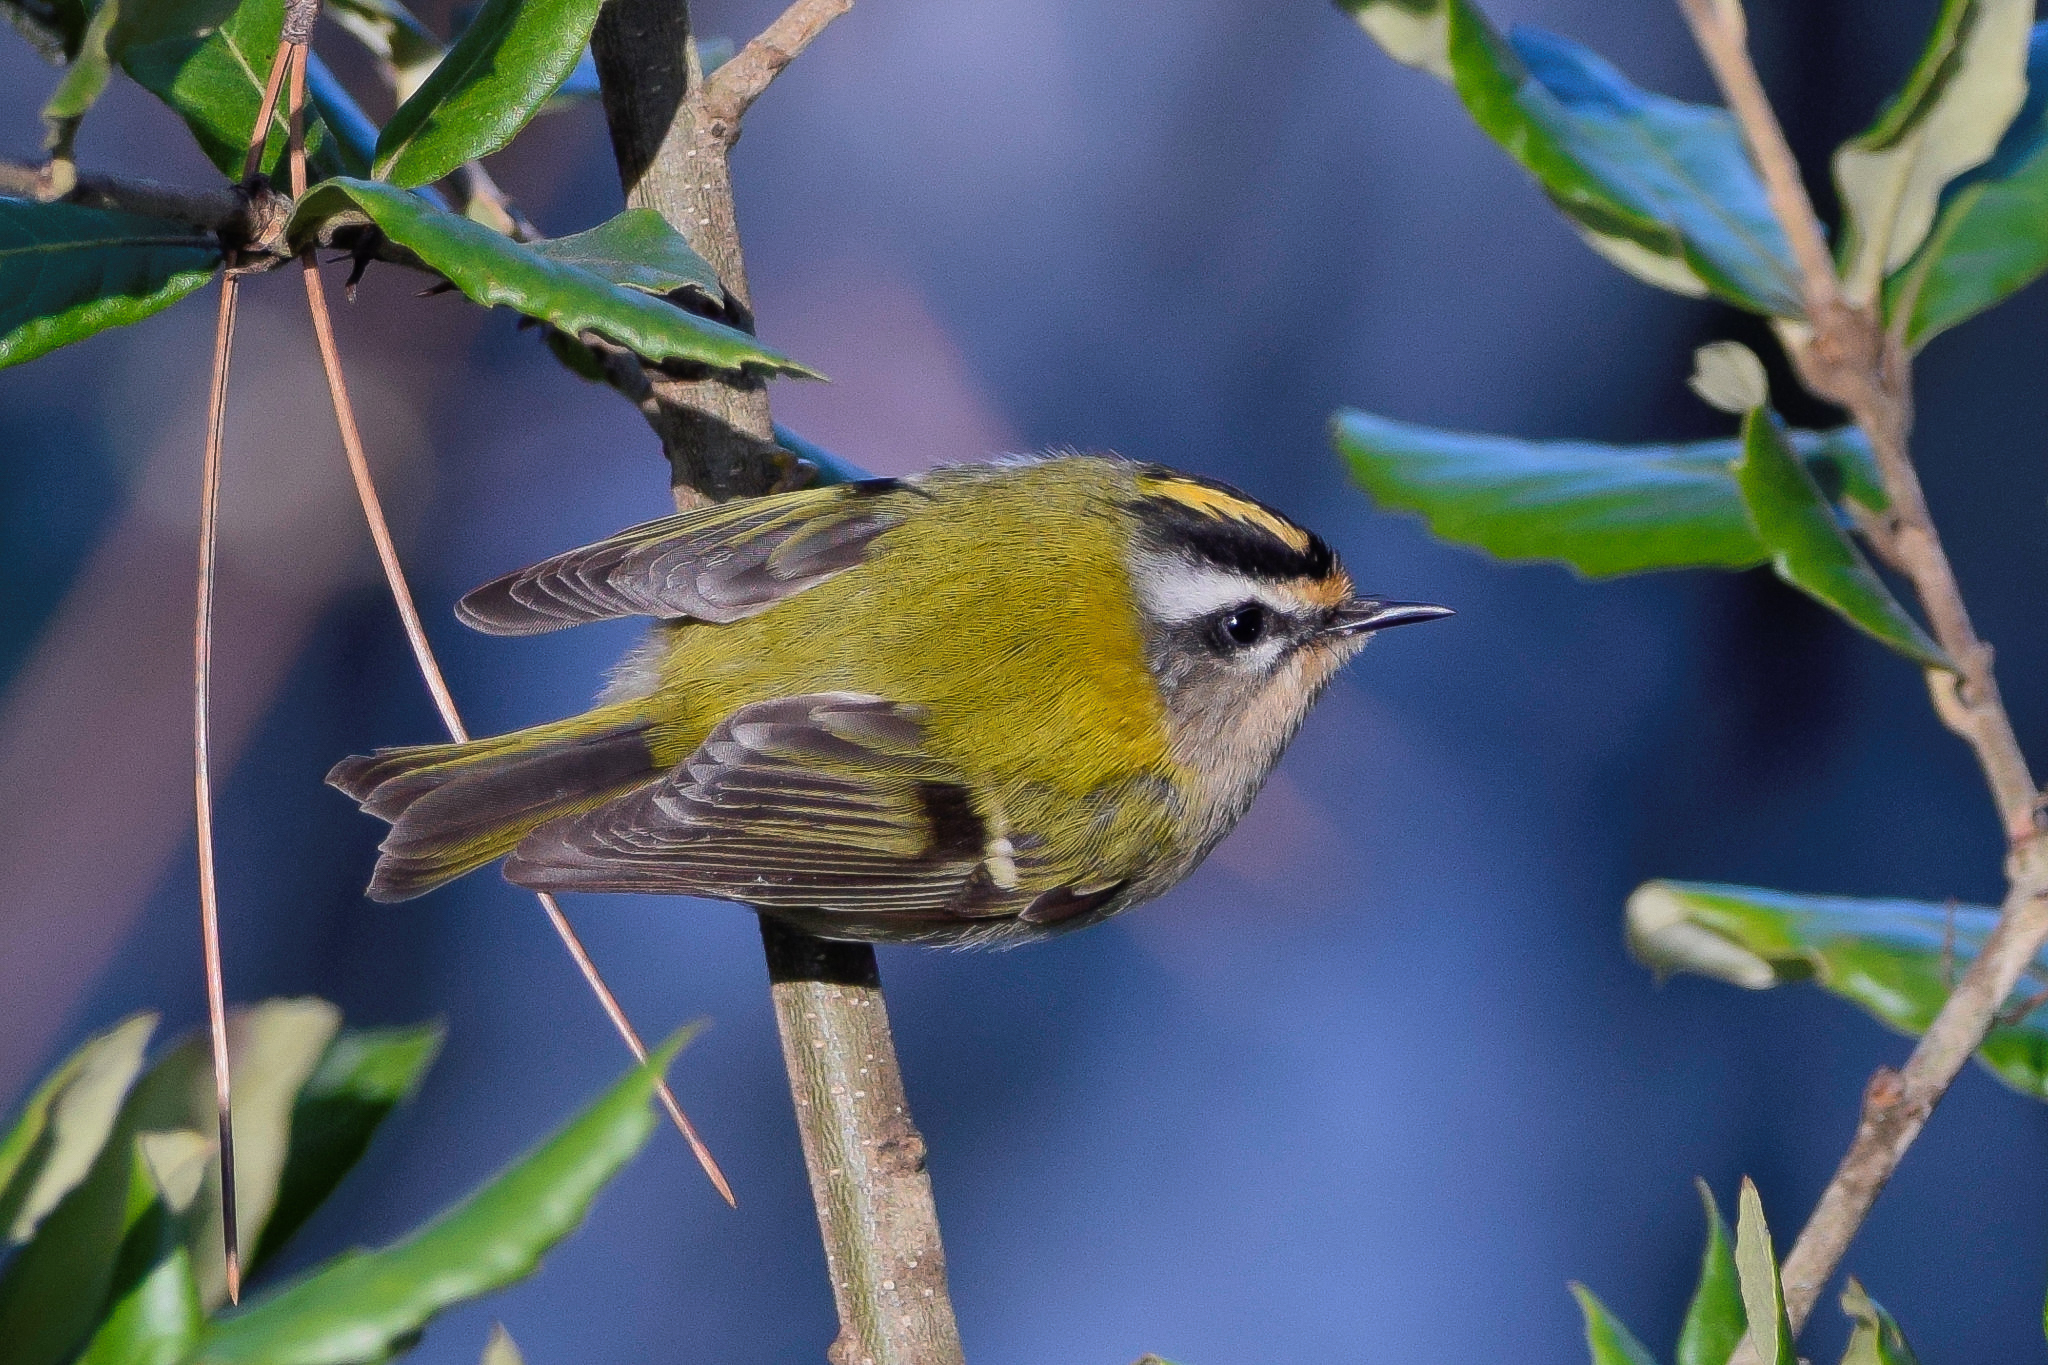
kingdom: Animalia
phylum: Chordata
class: Aves
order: Passeriformes
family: Regulidae
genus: Regulus
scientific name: Regulus ignicapilla
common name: Firecrest
